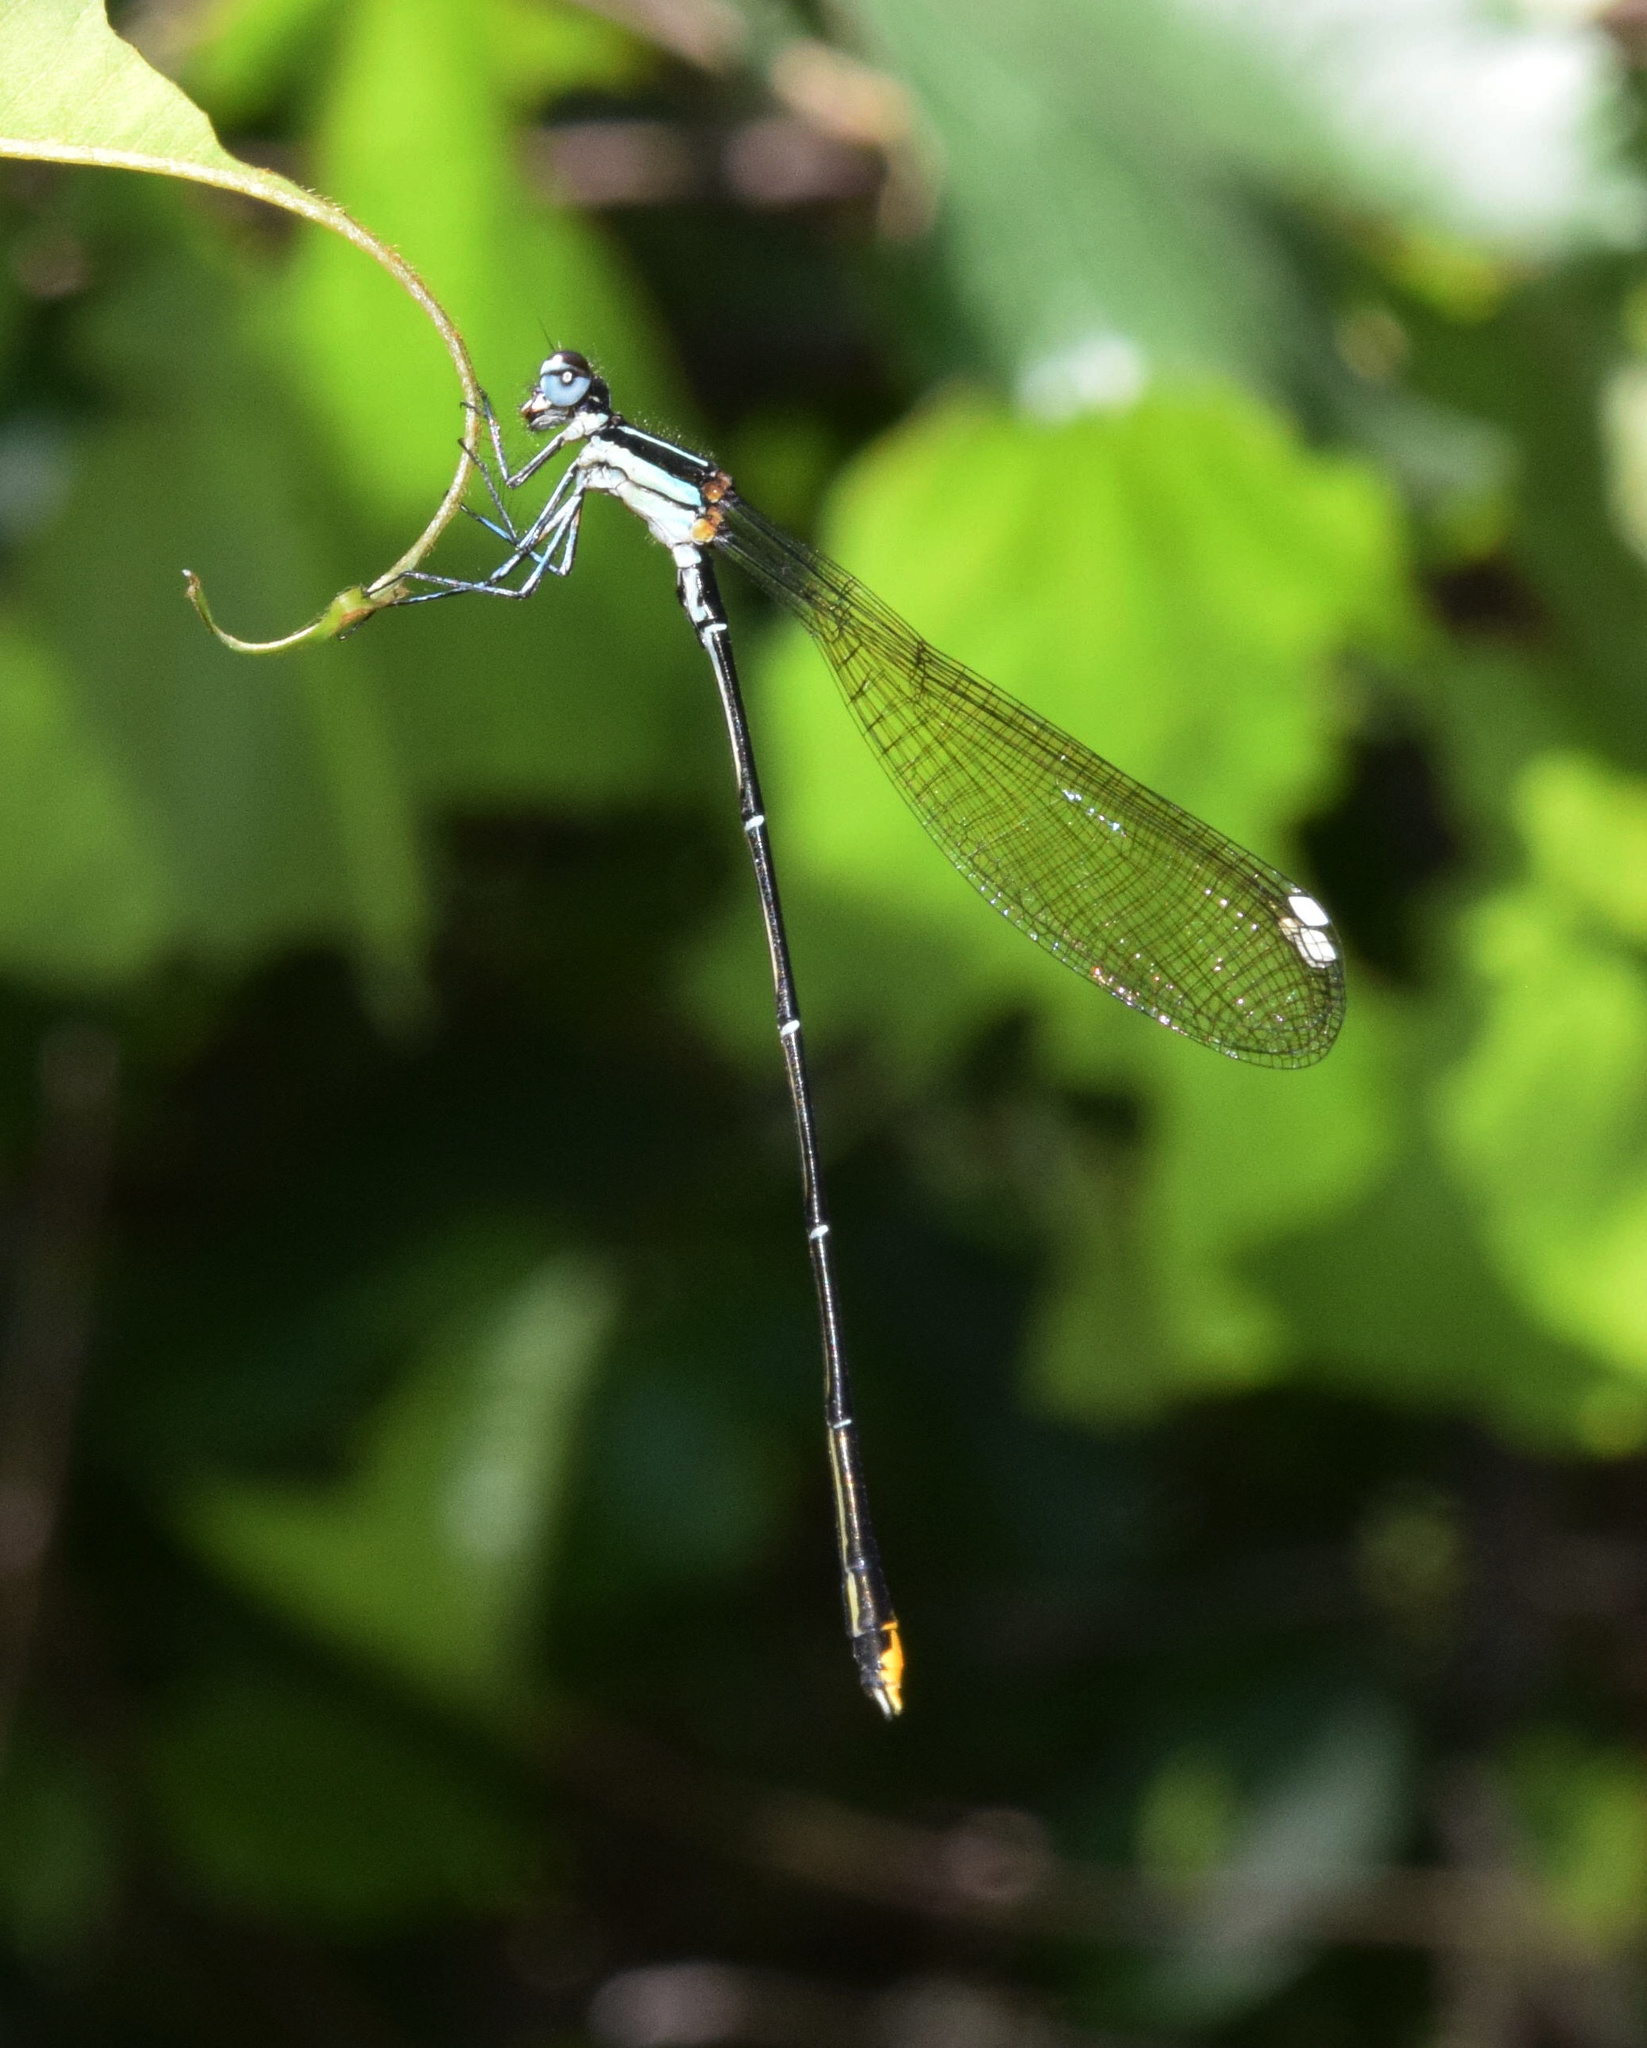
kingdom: Animalia
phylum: Arthropoda
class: Insecta
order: Odonata
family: Platycnemididae
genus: Allocnemis
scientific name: Allocnemis leucosticta
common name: Goldtail
